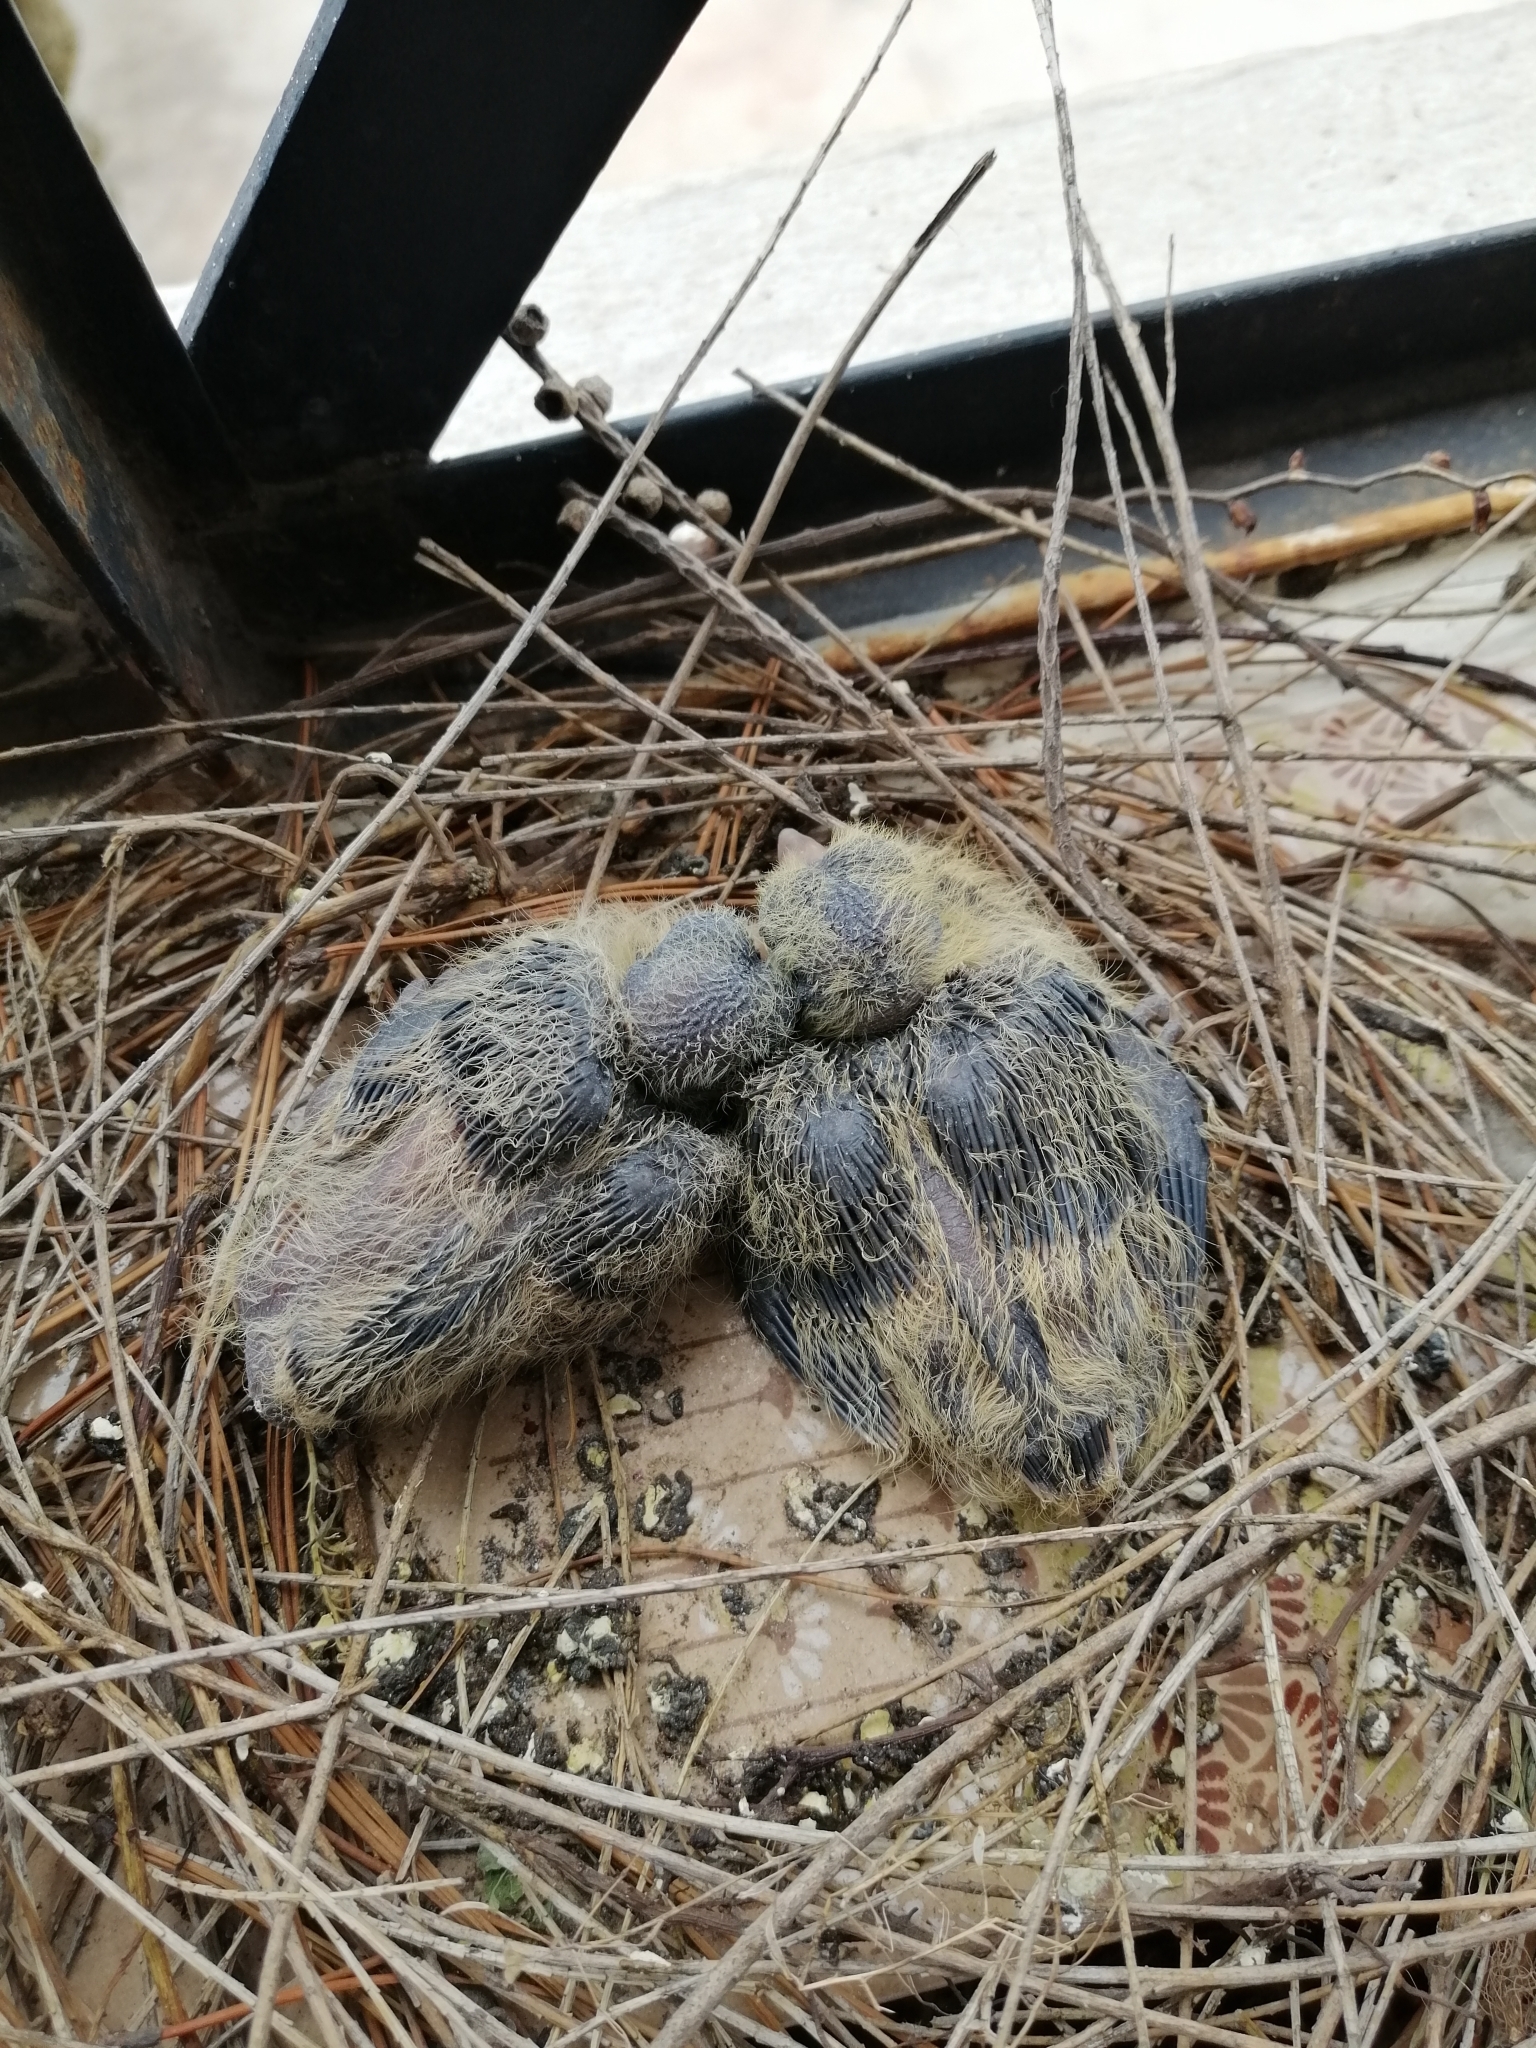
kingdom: Animalia
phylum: Chordata
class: Aves
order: Columbiformes
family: Columbidae
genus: Zenaida
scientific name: Zenaida auriculata
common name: Eared dove
